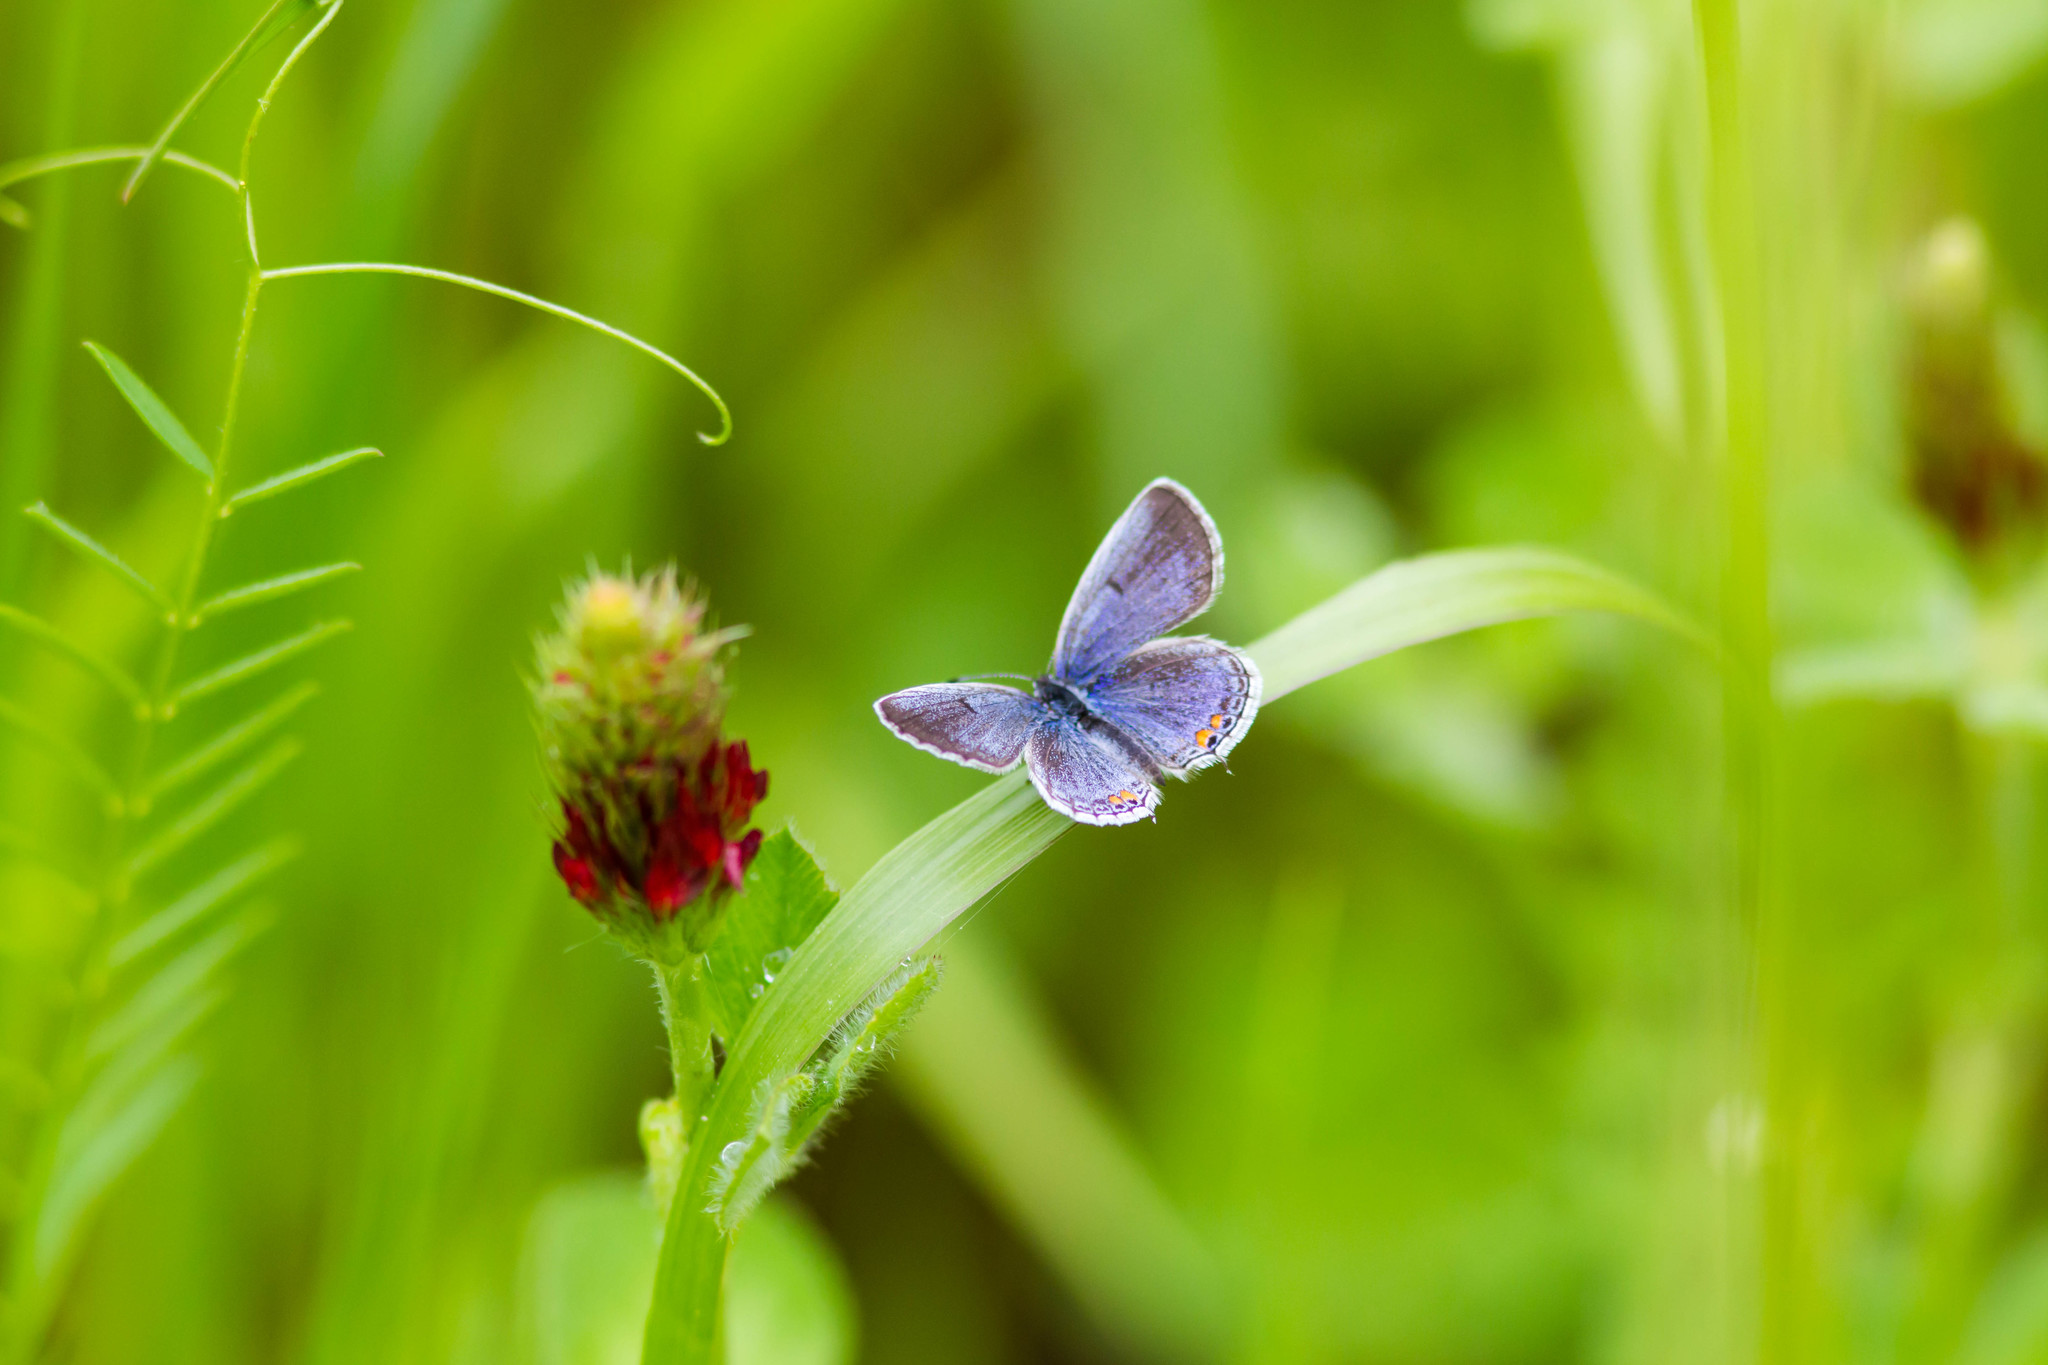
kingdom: Animalia
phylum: Arthropoda
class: Insecta
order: Lepidoptera
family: Lycaenidae
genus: Elkalyce
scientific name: Elkalyce comyntas
